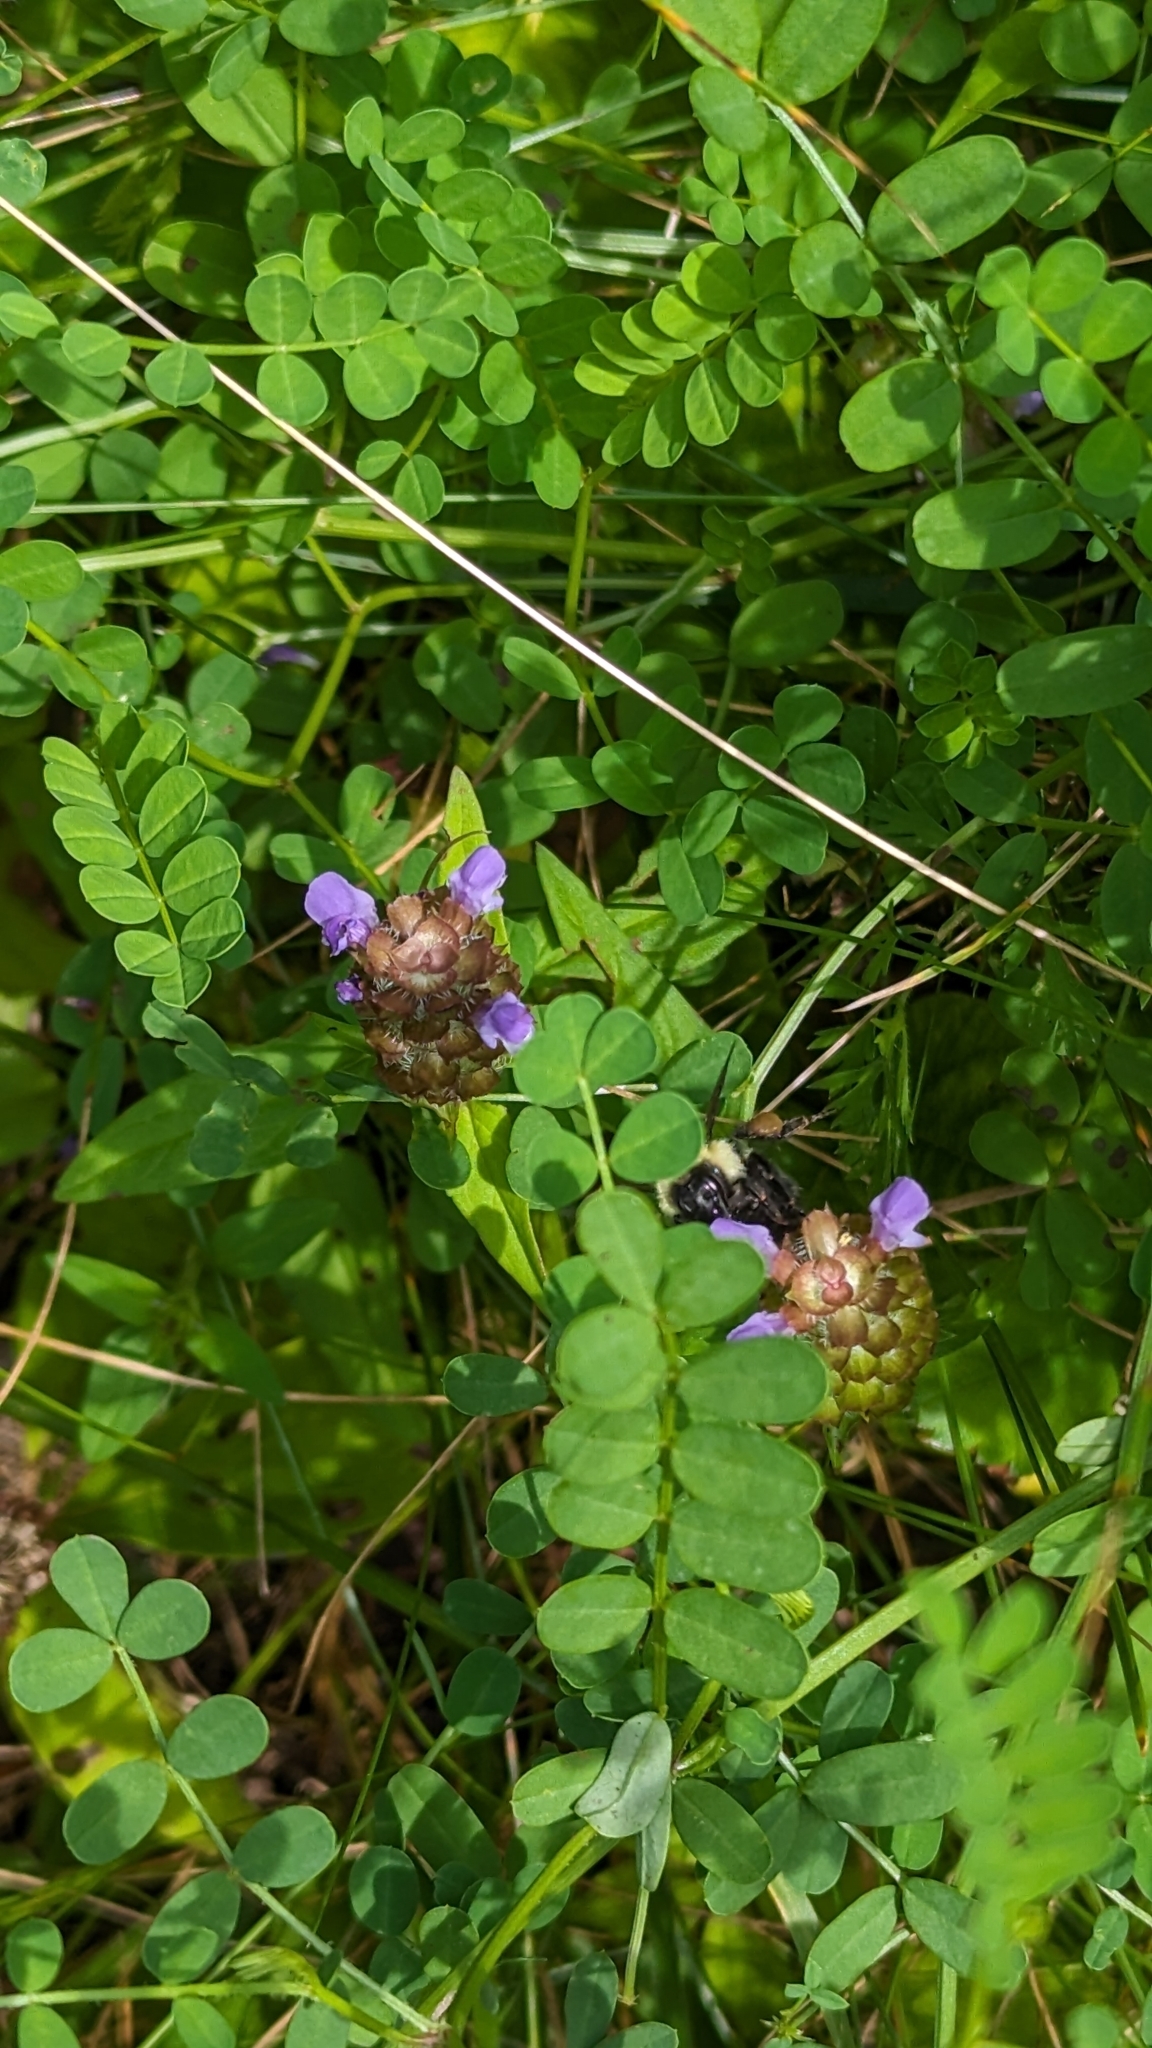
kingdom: Animalia
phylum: Arthropoda
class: Insecta
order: Hymenoptera
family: Apidae
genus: Pyrobombus
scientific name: Pyrobombus
